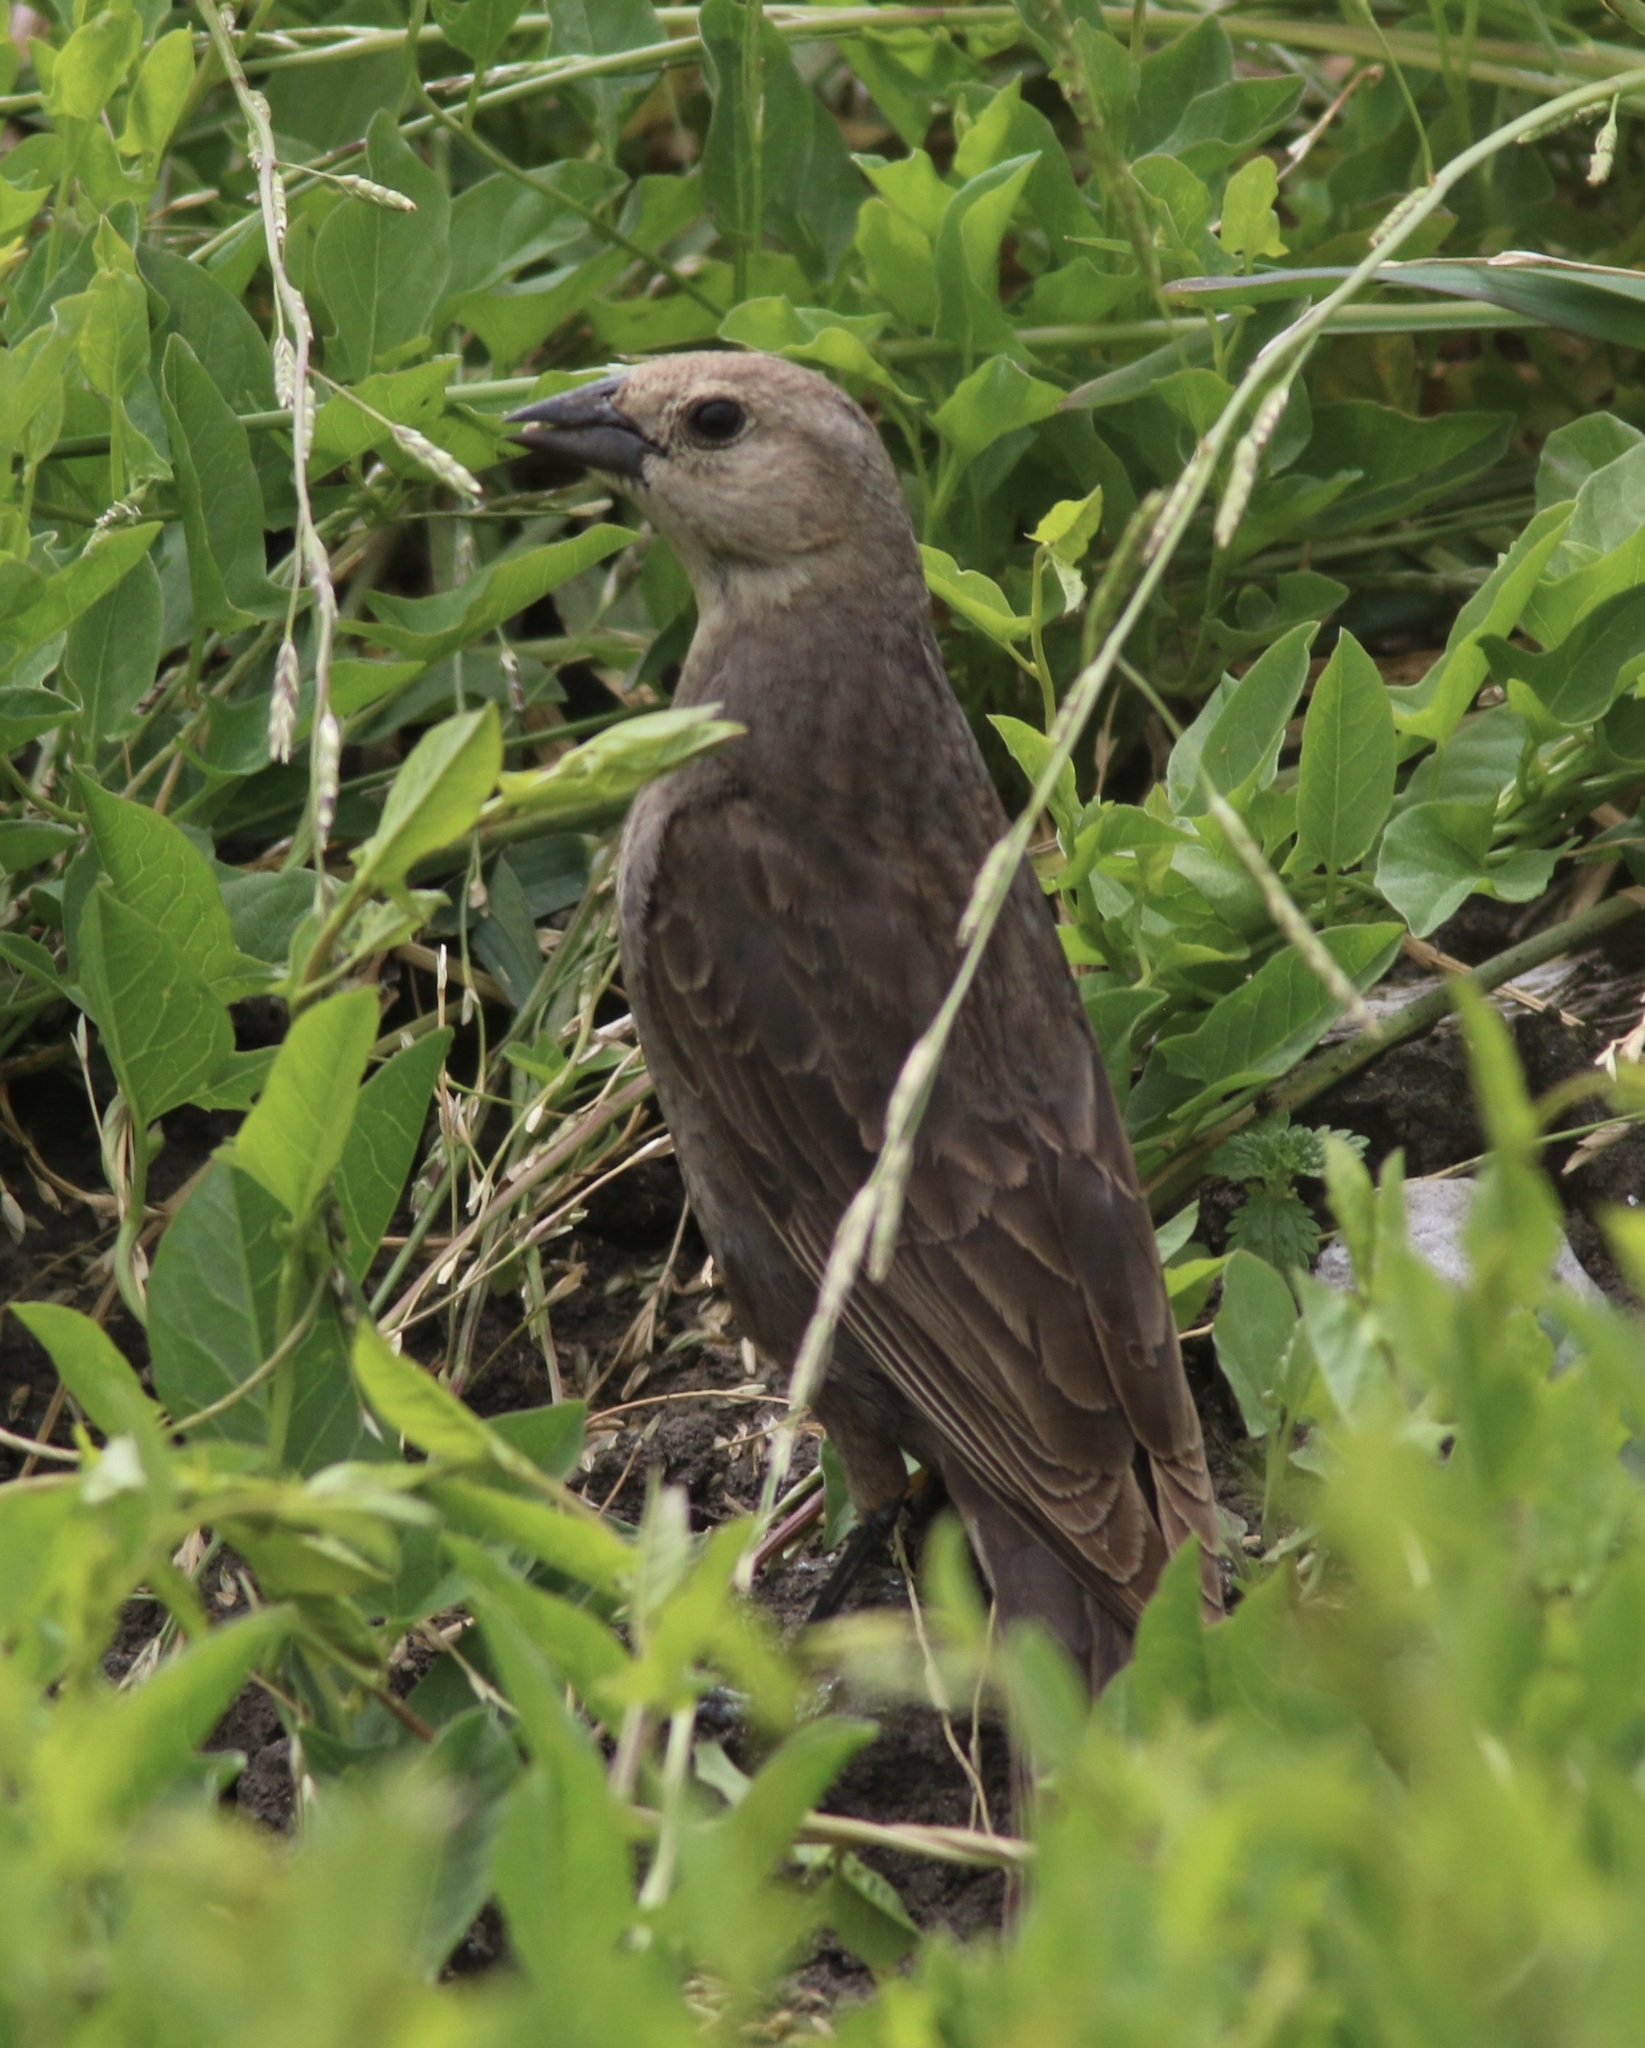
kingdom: Animalia
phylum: Chordata
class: Aves
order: Passeriformes
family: Icteridae
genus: Molothrus
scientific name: Molothrus ater
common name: Brown-headed cowbird
